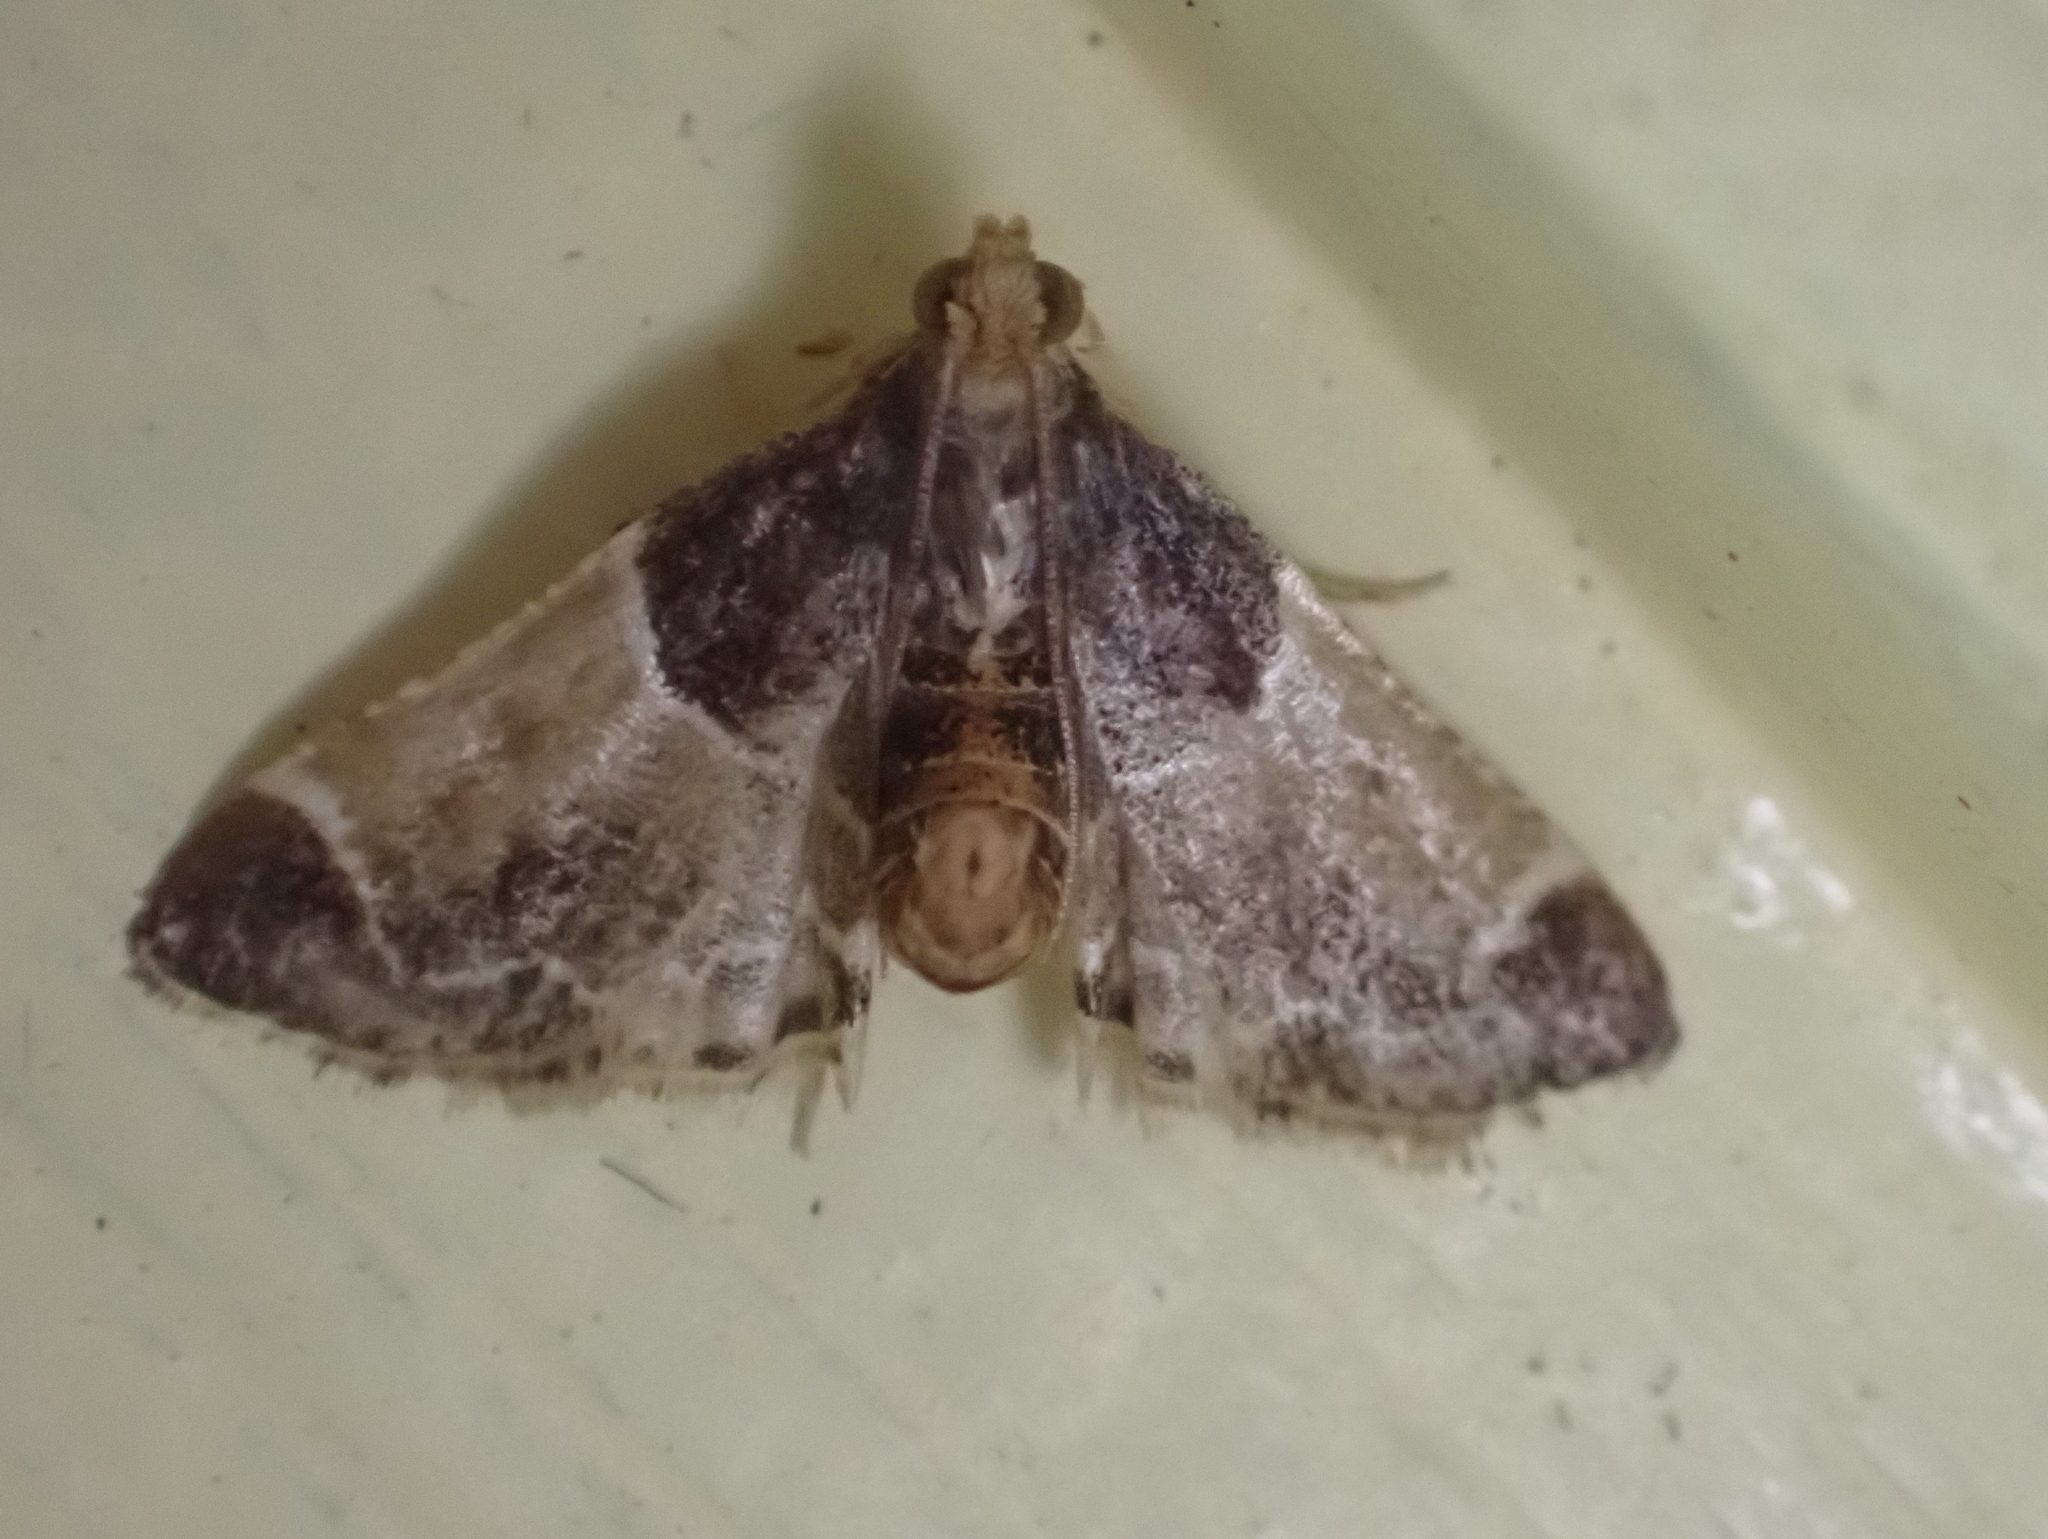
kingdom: Animalia
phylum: Arthropoda
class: Insecta
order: Lepidoptera
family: Pyralidae
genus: Pyralis
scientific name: Pyralis farinalis
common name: Meal moth
